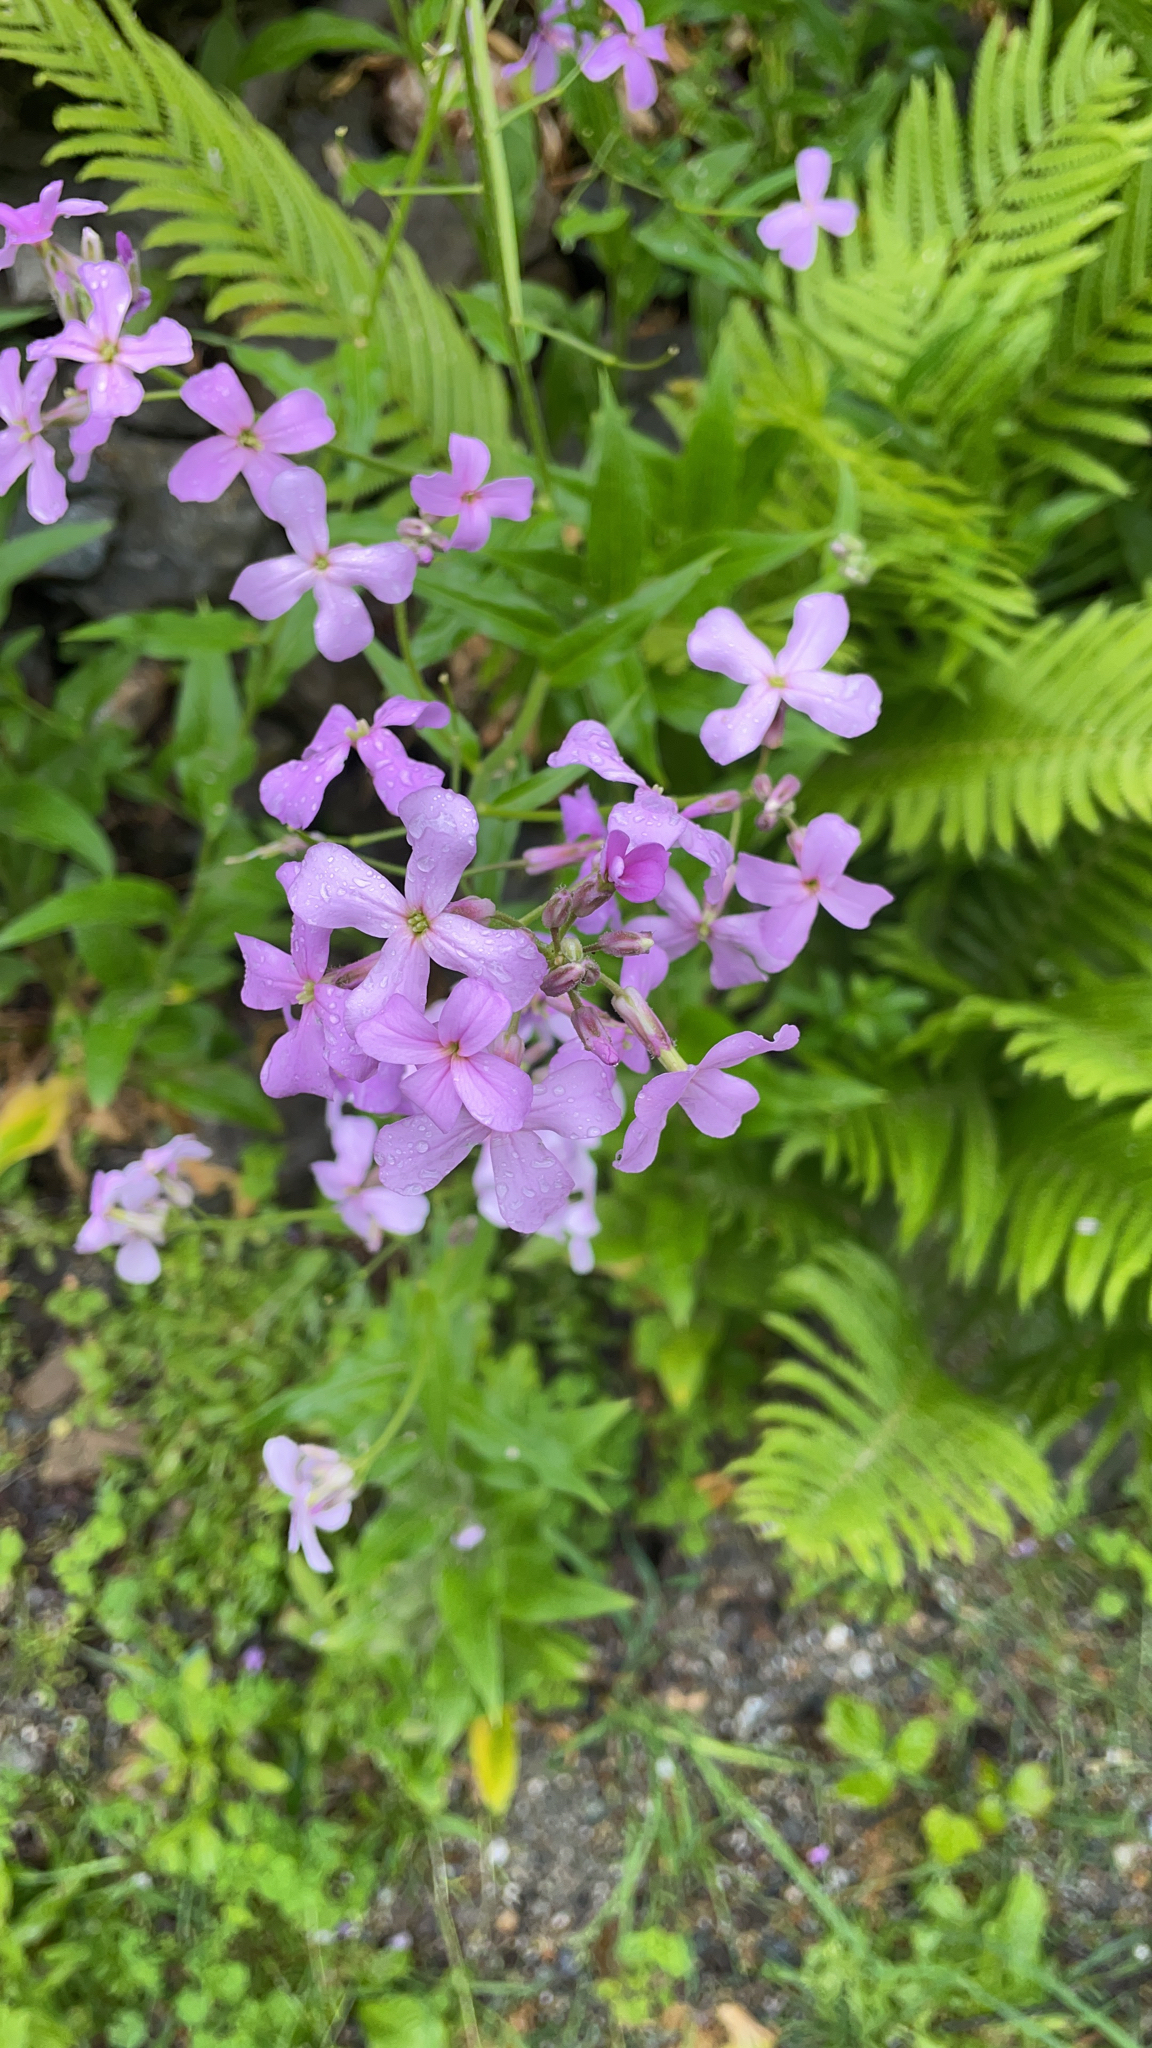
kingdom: Plantae
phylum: Tracheophyta
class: Magnoliopsida
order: Brassicales
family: Brassicaceae
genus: Hesperis
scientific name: Hesperis matronalis
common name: Dame's-violet
